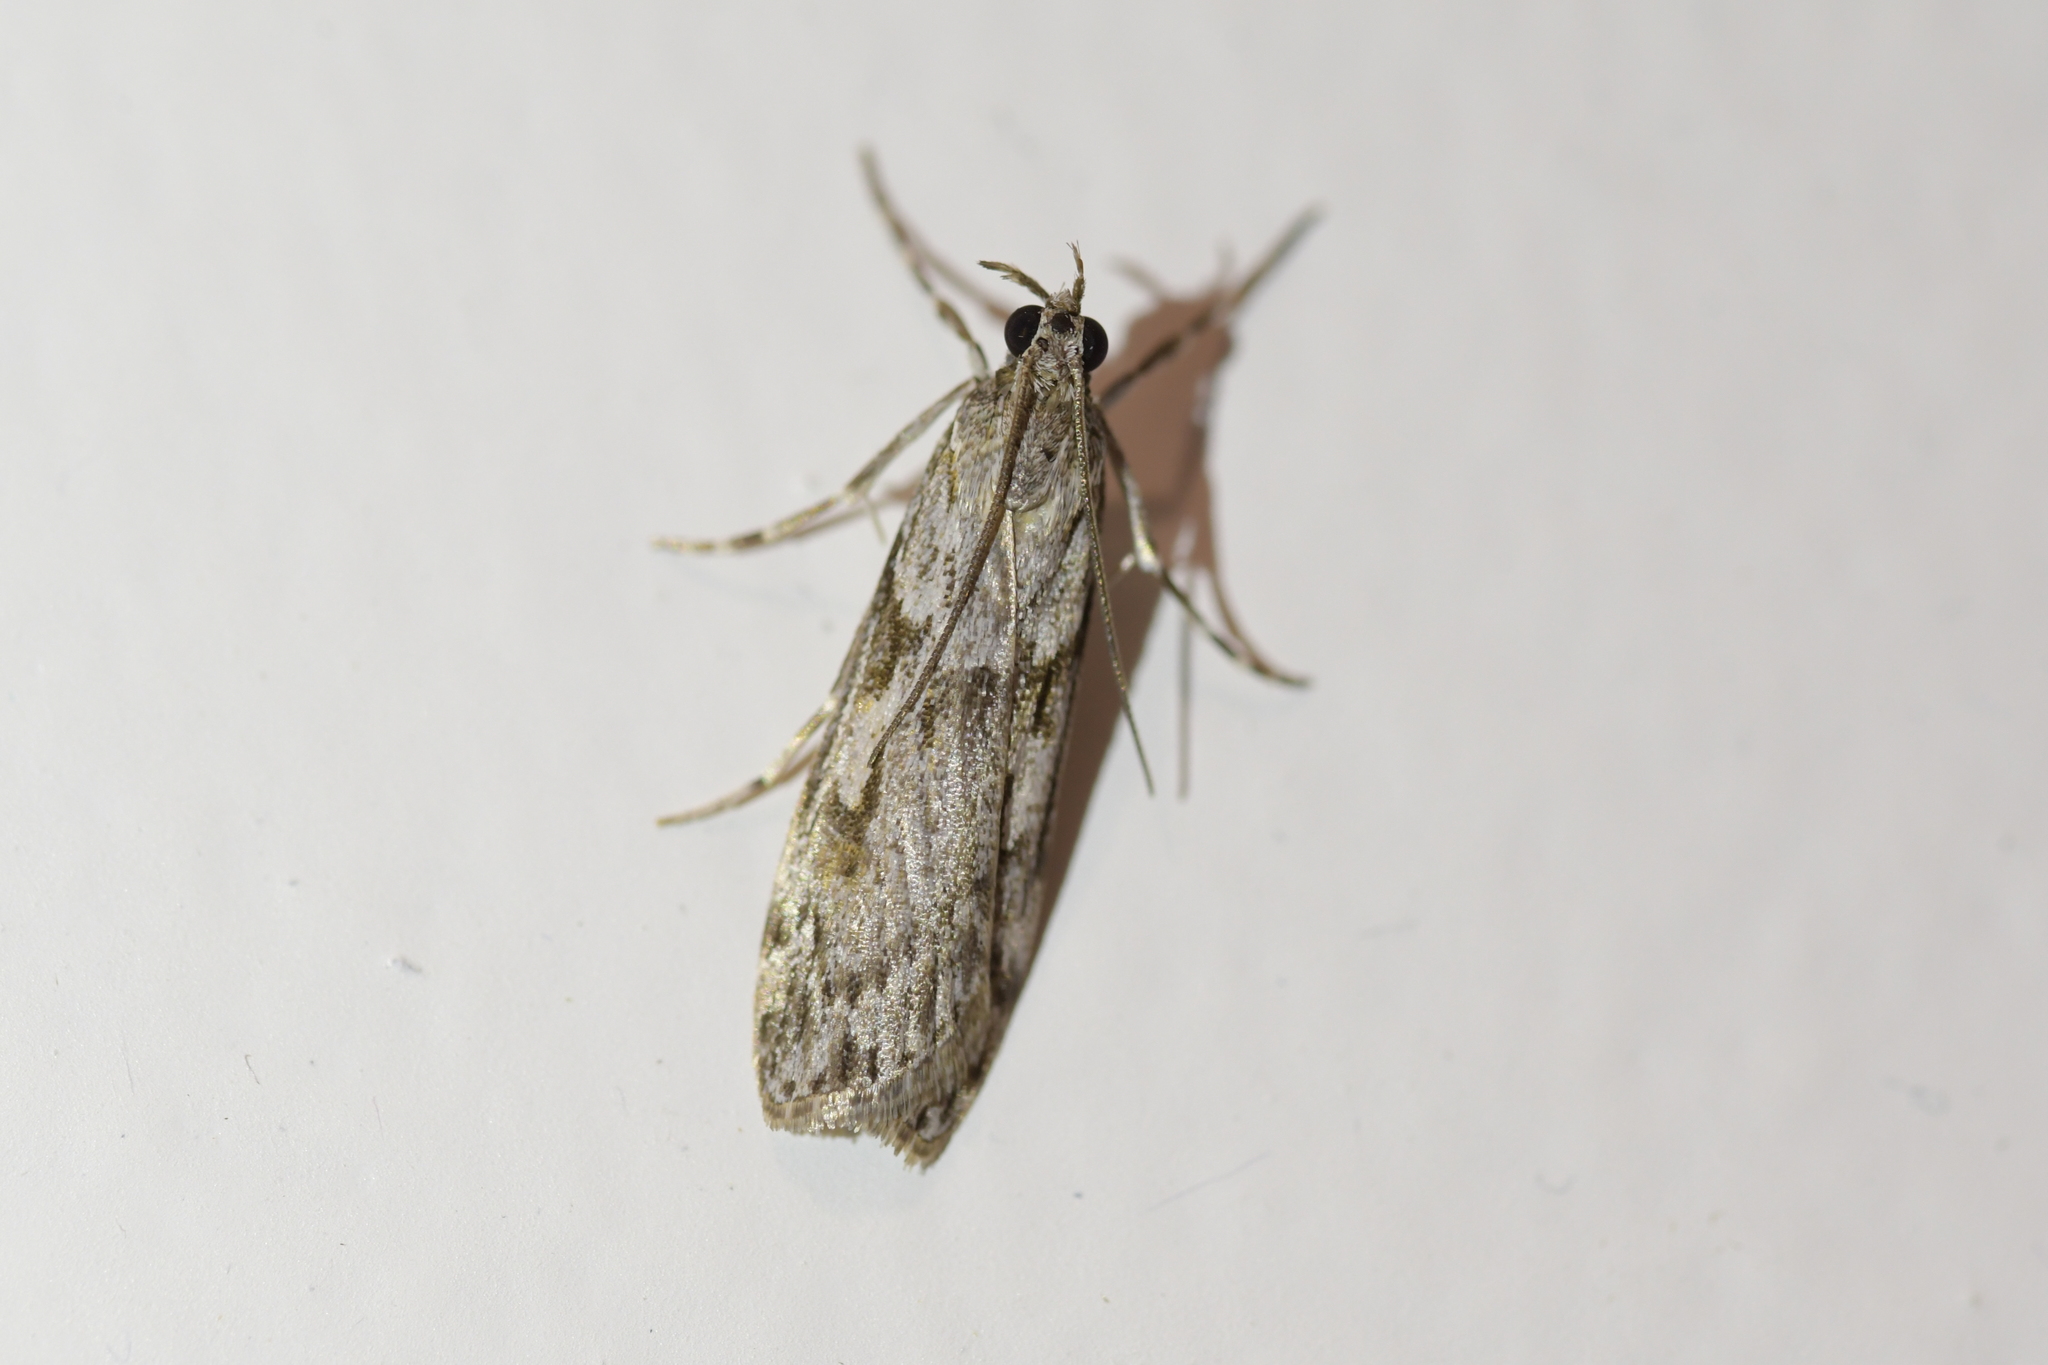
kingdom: Animalia
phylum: Arthropoda
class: Insecta
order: Lepidoptera
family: Crambidae
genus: Scoparia
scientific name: Scoparia halopis
